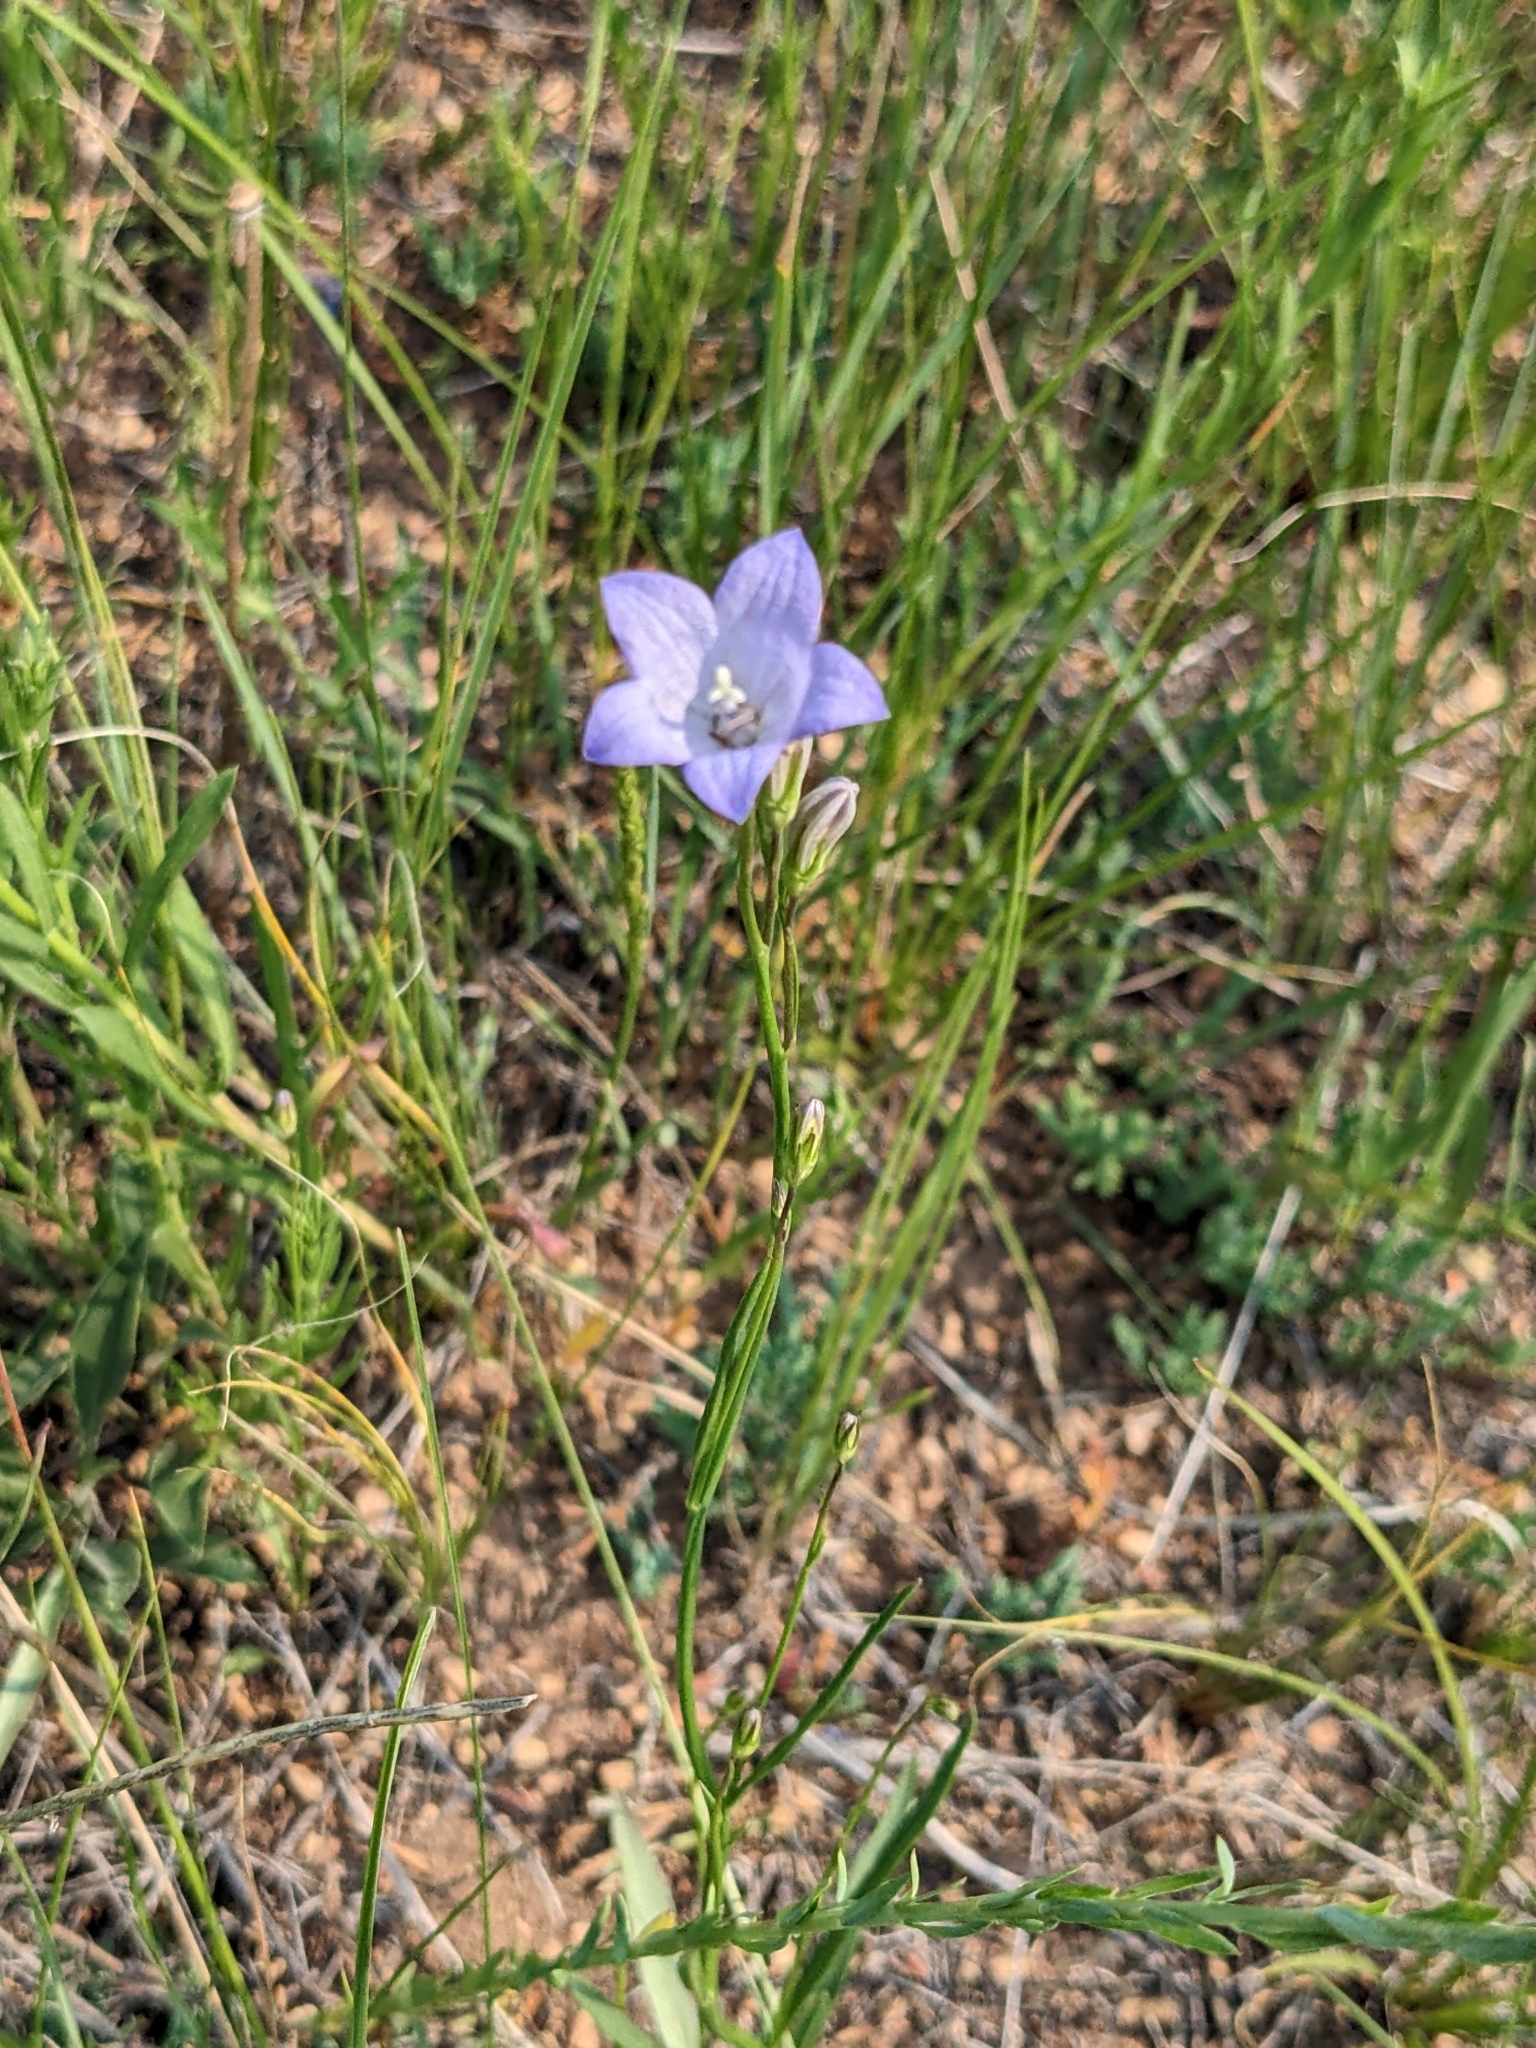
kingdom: Plantae
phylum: Tracheophyta
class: Magnoliopsida
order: Asterales
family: Campanulaceae
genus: Campanula
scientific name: Campanula petiolata
